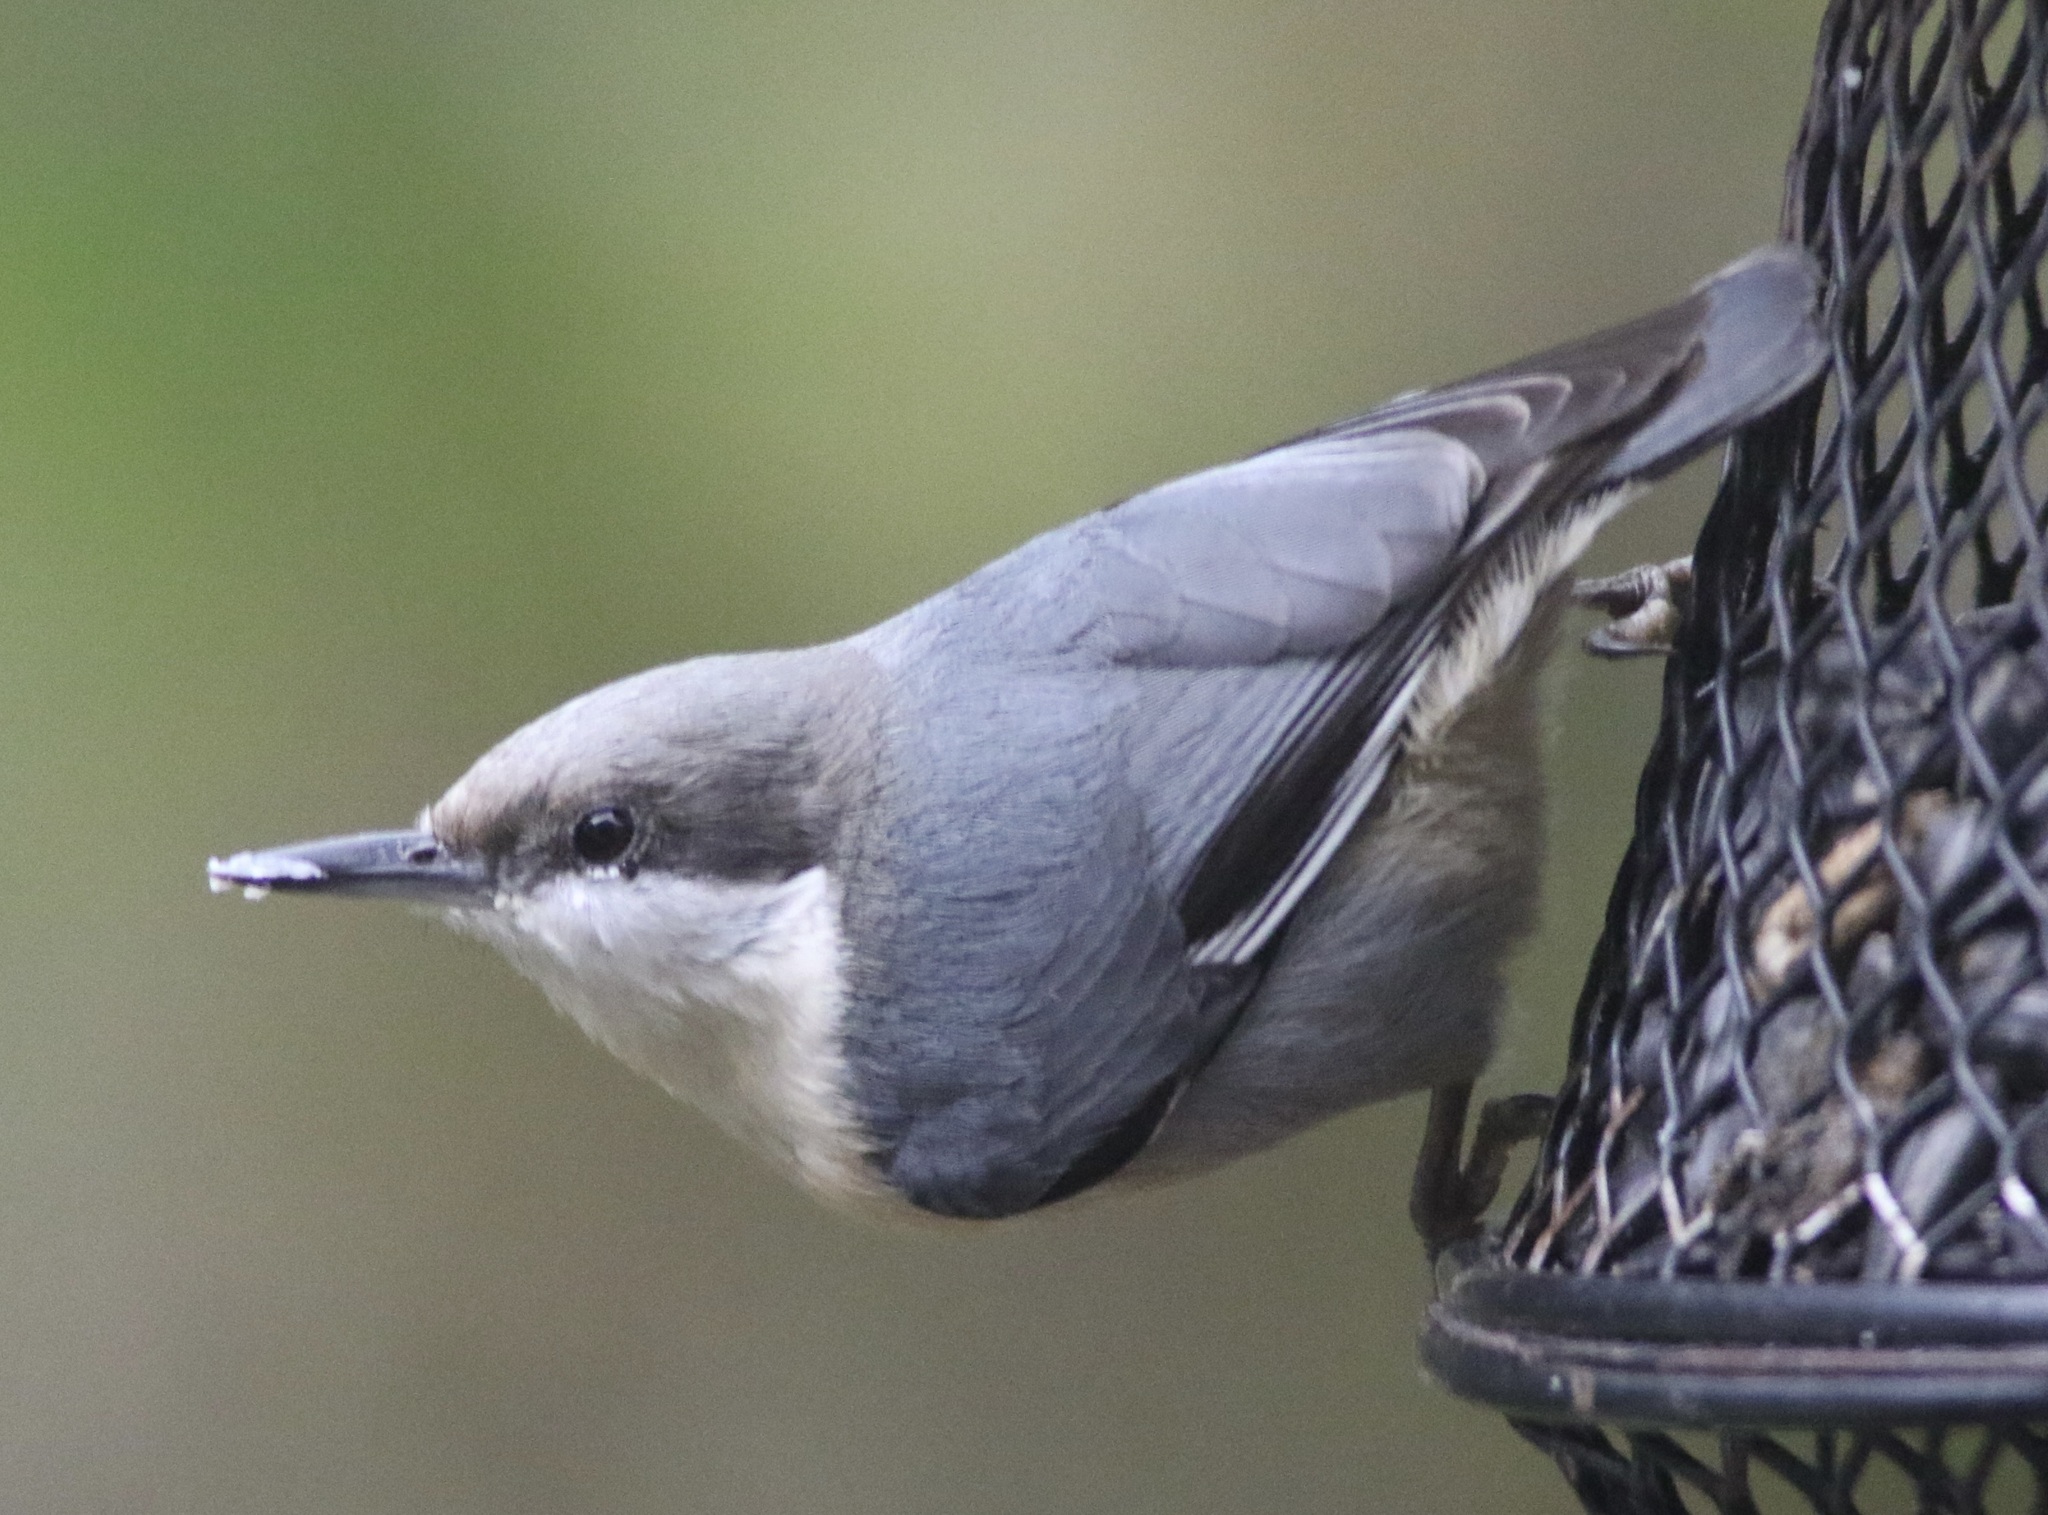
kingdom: Animalia
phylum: Chordata
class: Aves
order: Passeriformes
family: Sittidae
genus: Sitta
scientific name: Sitta pygmaea
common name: Pygmy nuthatch
